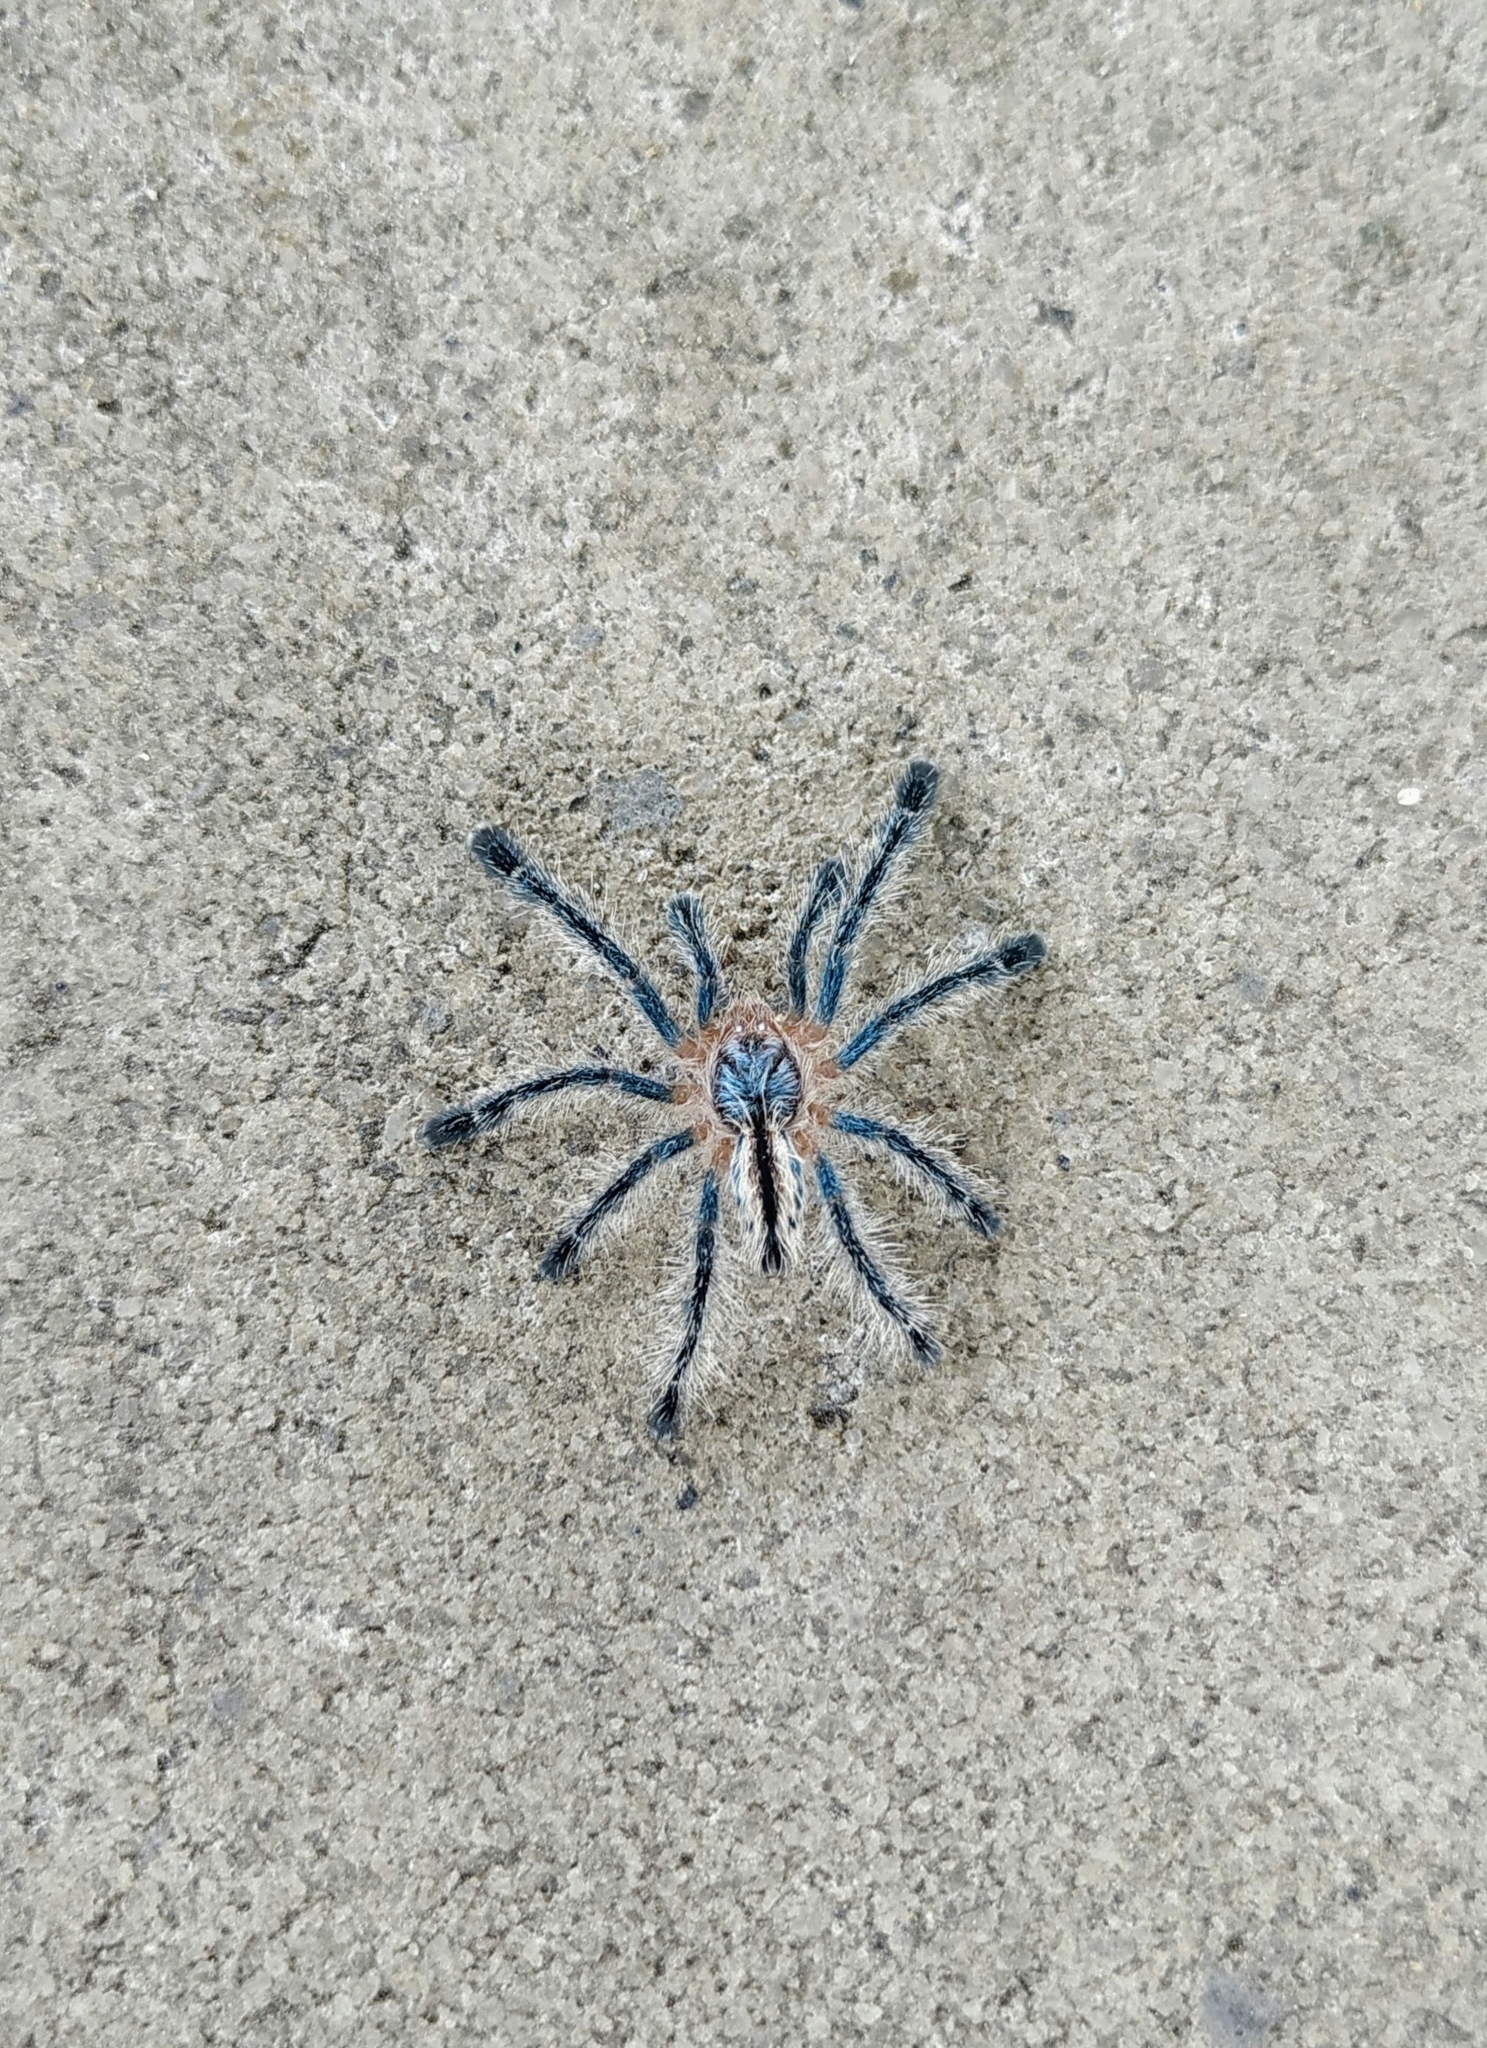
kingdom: Animalia
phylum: Arthropoda
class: Arachnida
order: Araneae
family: Theraphosidae
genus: Iridopelma
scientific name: Iridopelma hirsutum
